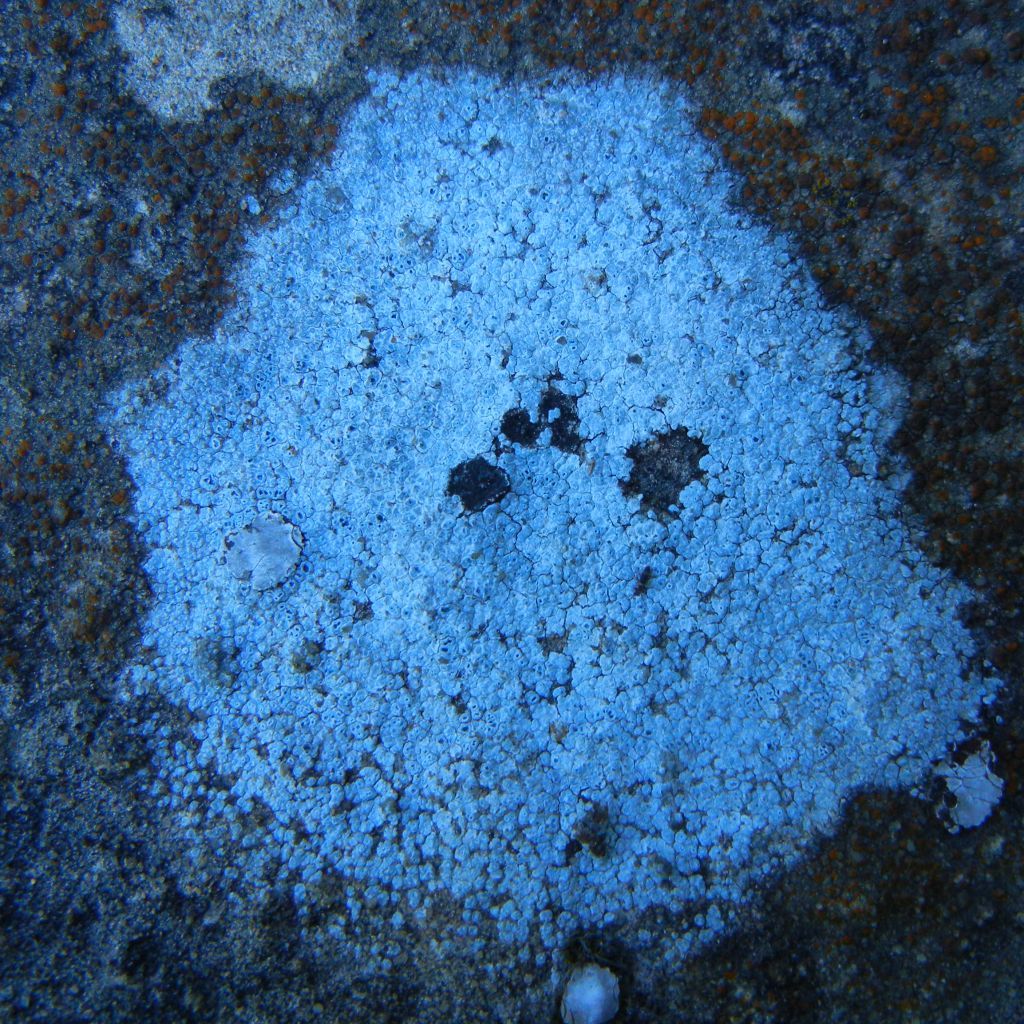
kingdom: Fungi
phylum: Ascomycota
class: Lecanoromycetes
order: Pertusariales
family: Megasporaceae
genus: Circinaria
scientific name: Circinaria contorta
